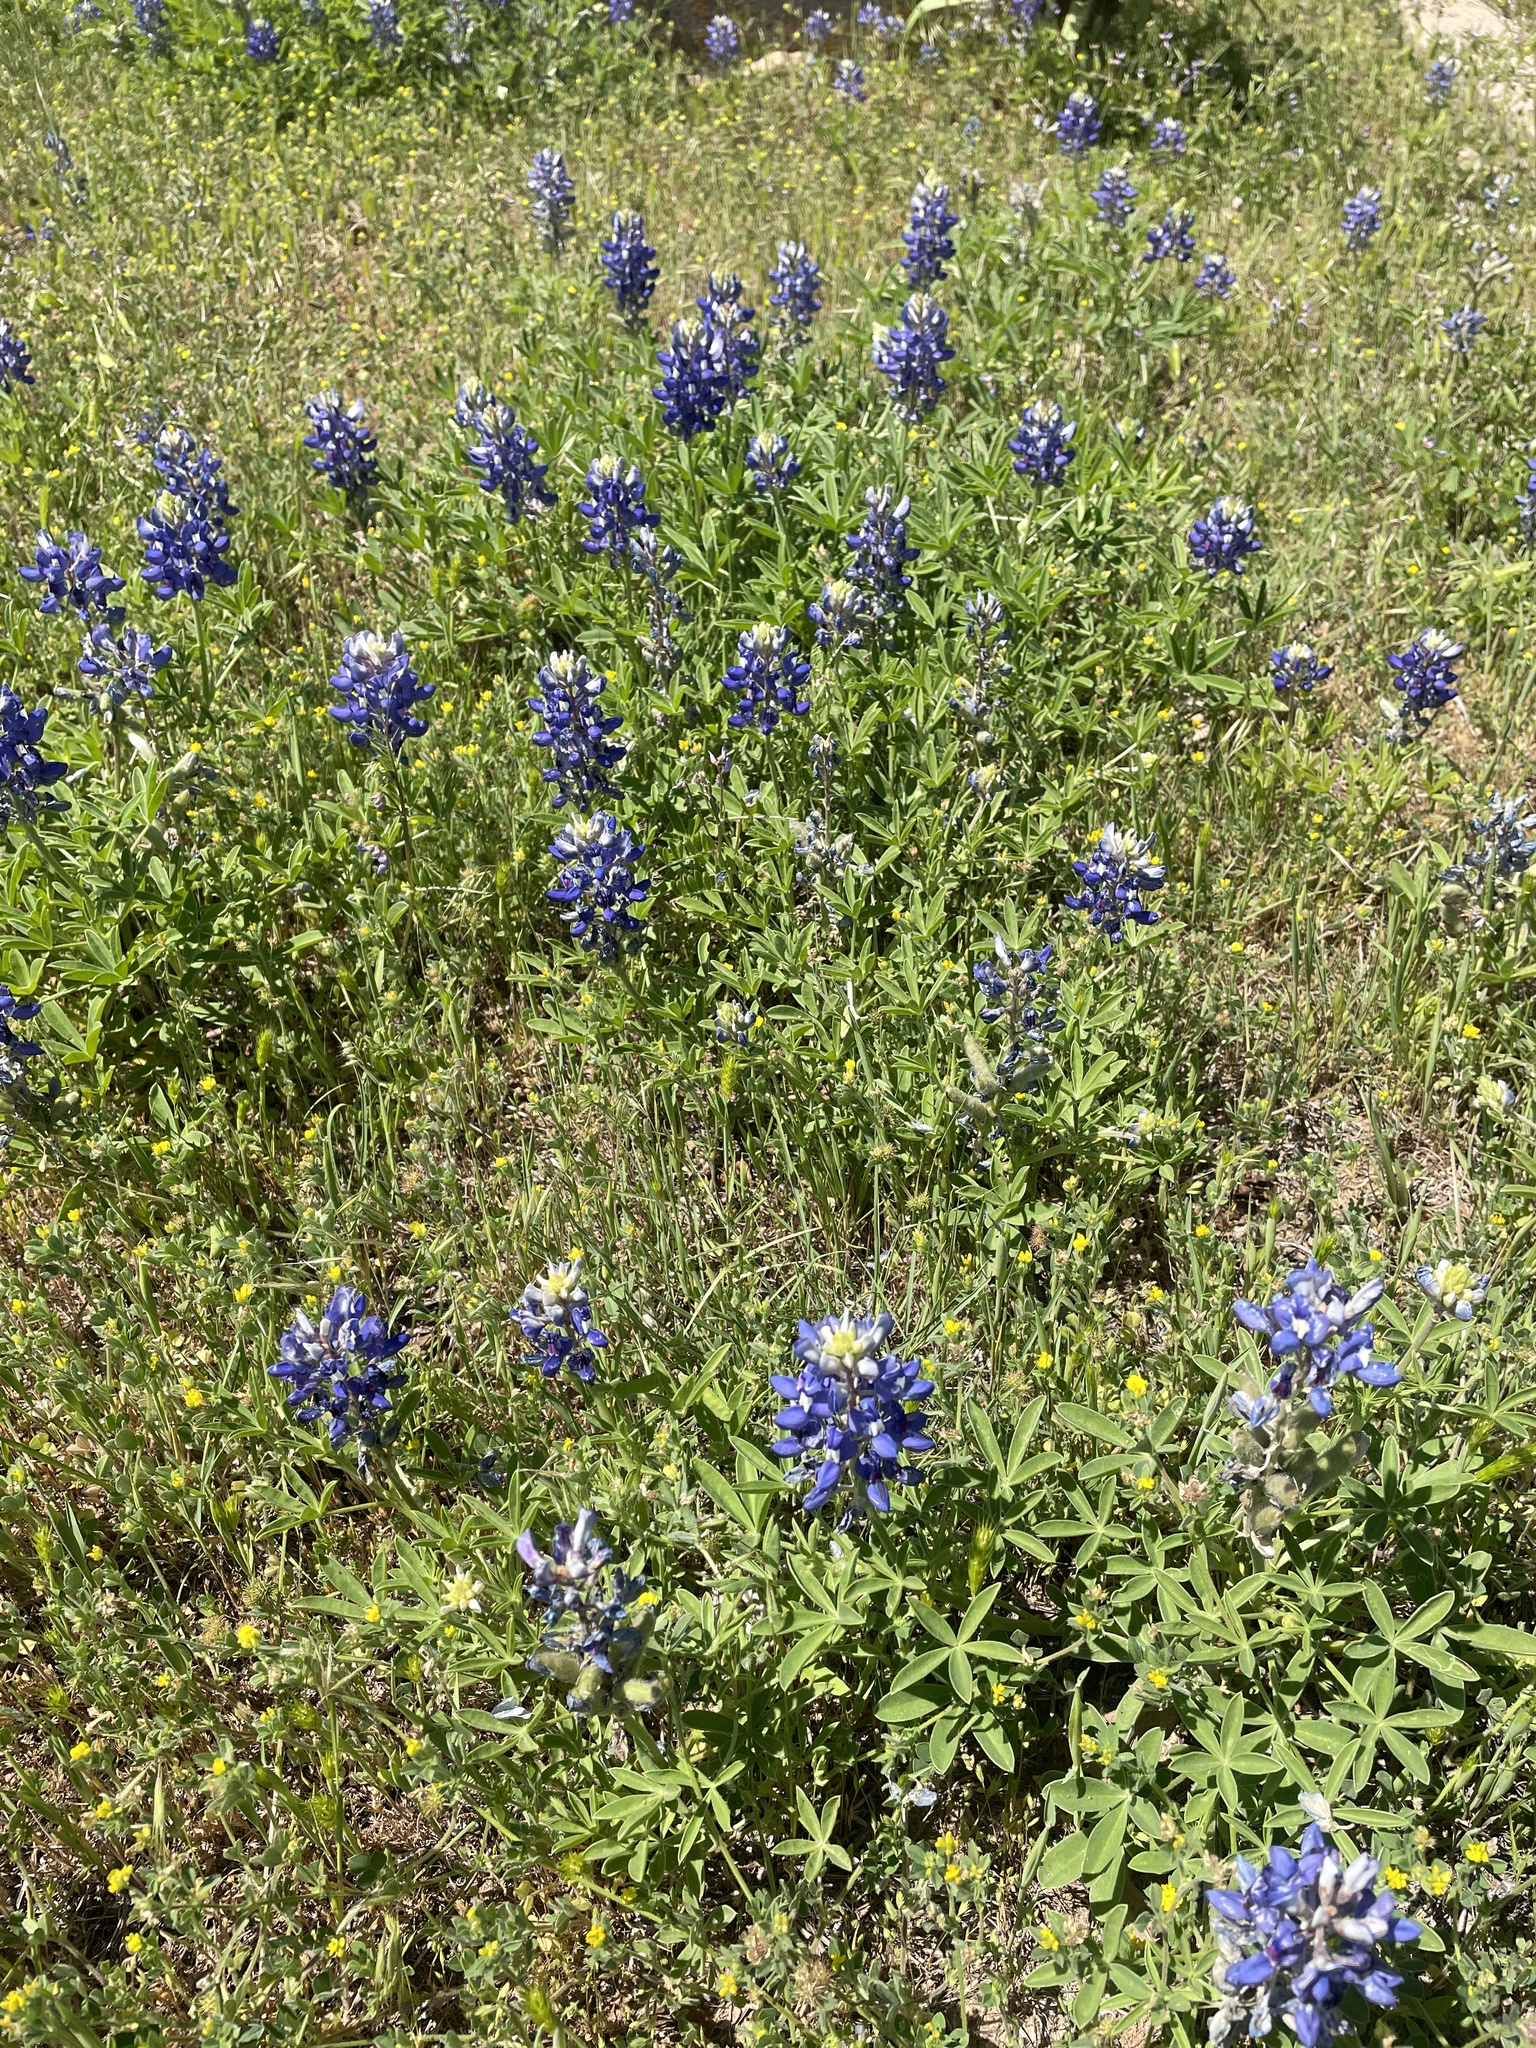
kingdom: Plantae
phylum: Tracheophyta
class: Magnoliopsida
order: Fabales
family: Fabaceae
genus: Lupinus
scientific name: Lupinus texensis
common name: Texas bluebonnet
